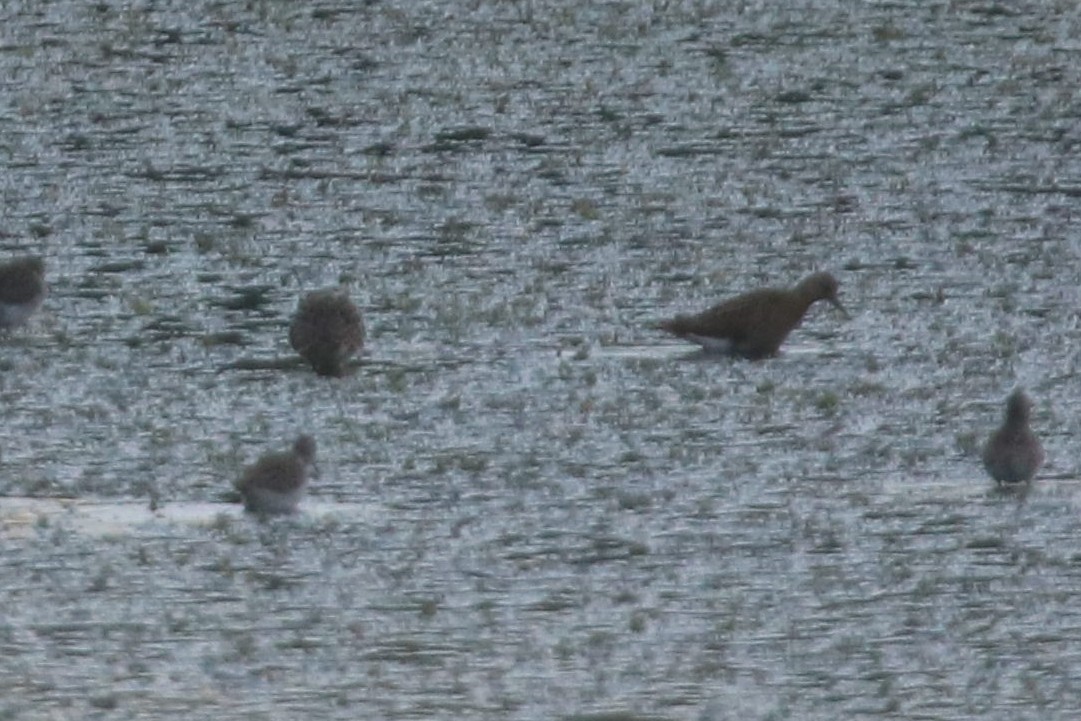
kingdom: Animalia
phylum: Chordata
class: Aves
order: Charadriiformes
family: Scolopacidae
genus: Calidris
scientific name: Calidris pugnax
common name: Ruff
